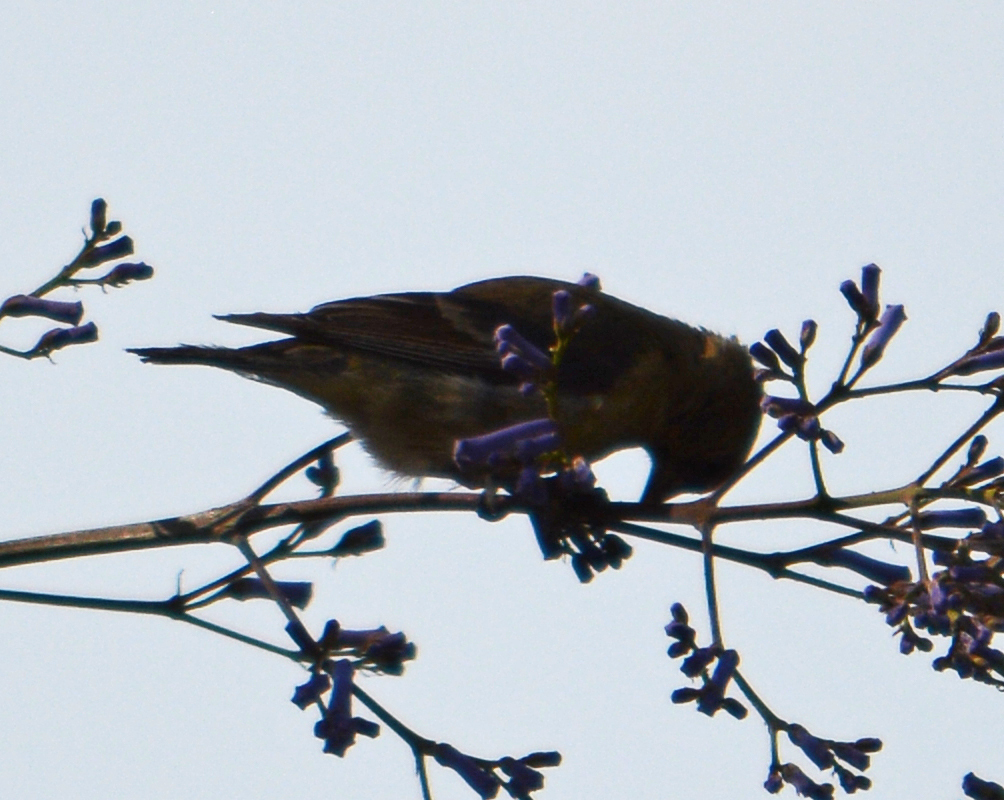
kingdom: Animalia
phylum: Chordata
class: Aves
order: Passeriformes
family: Fringillidae
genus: Spinus
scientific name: Spinus psaltria
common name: Lesser goldfinch
